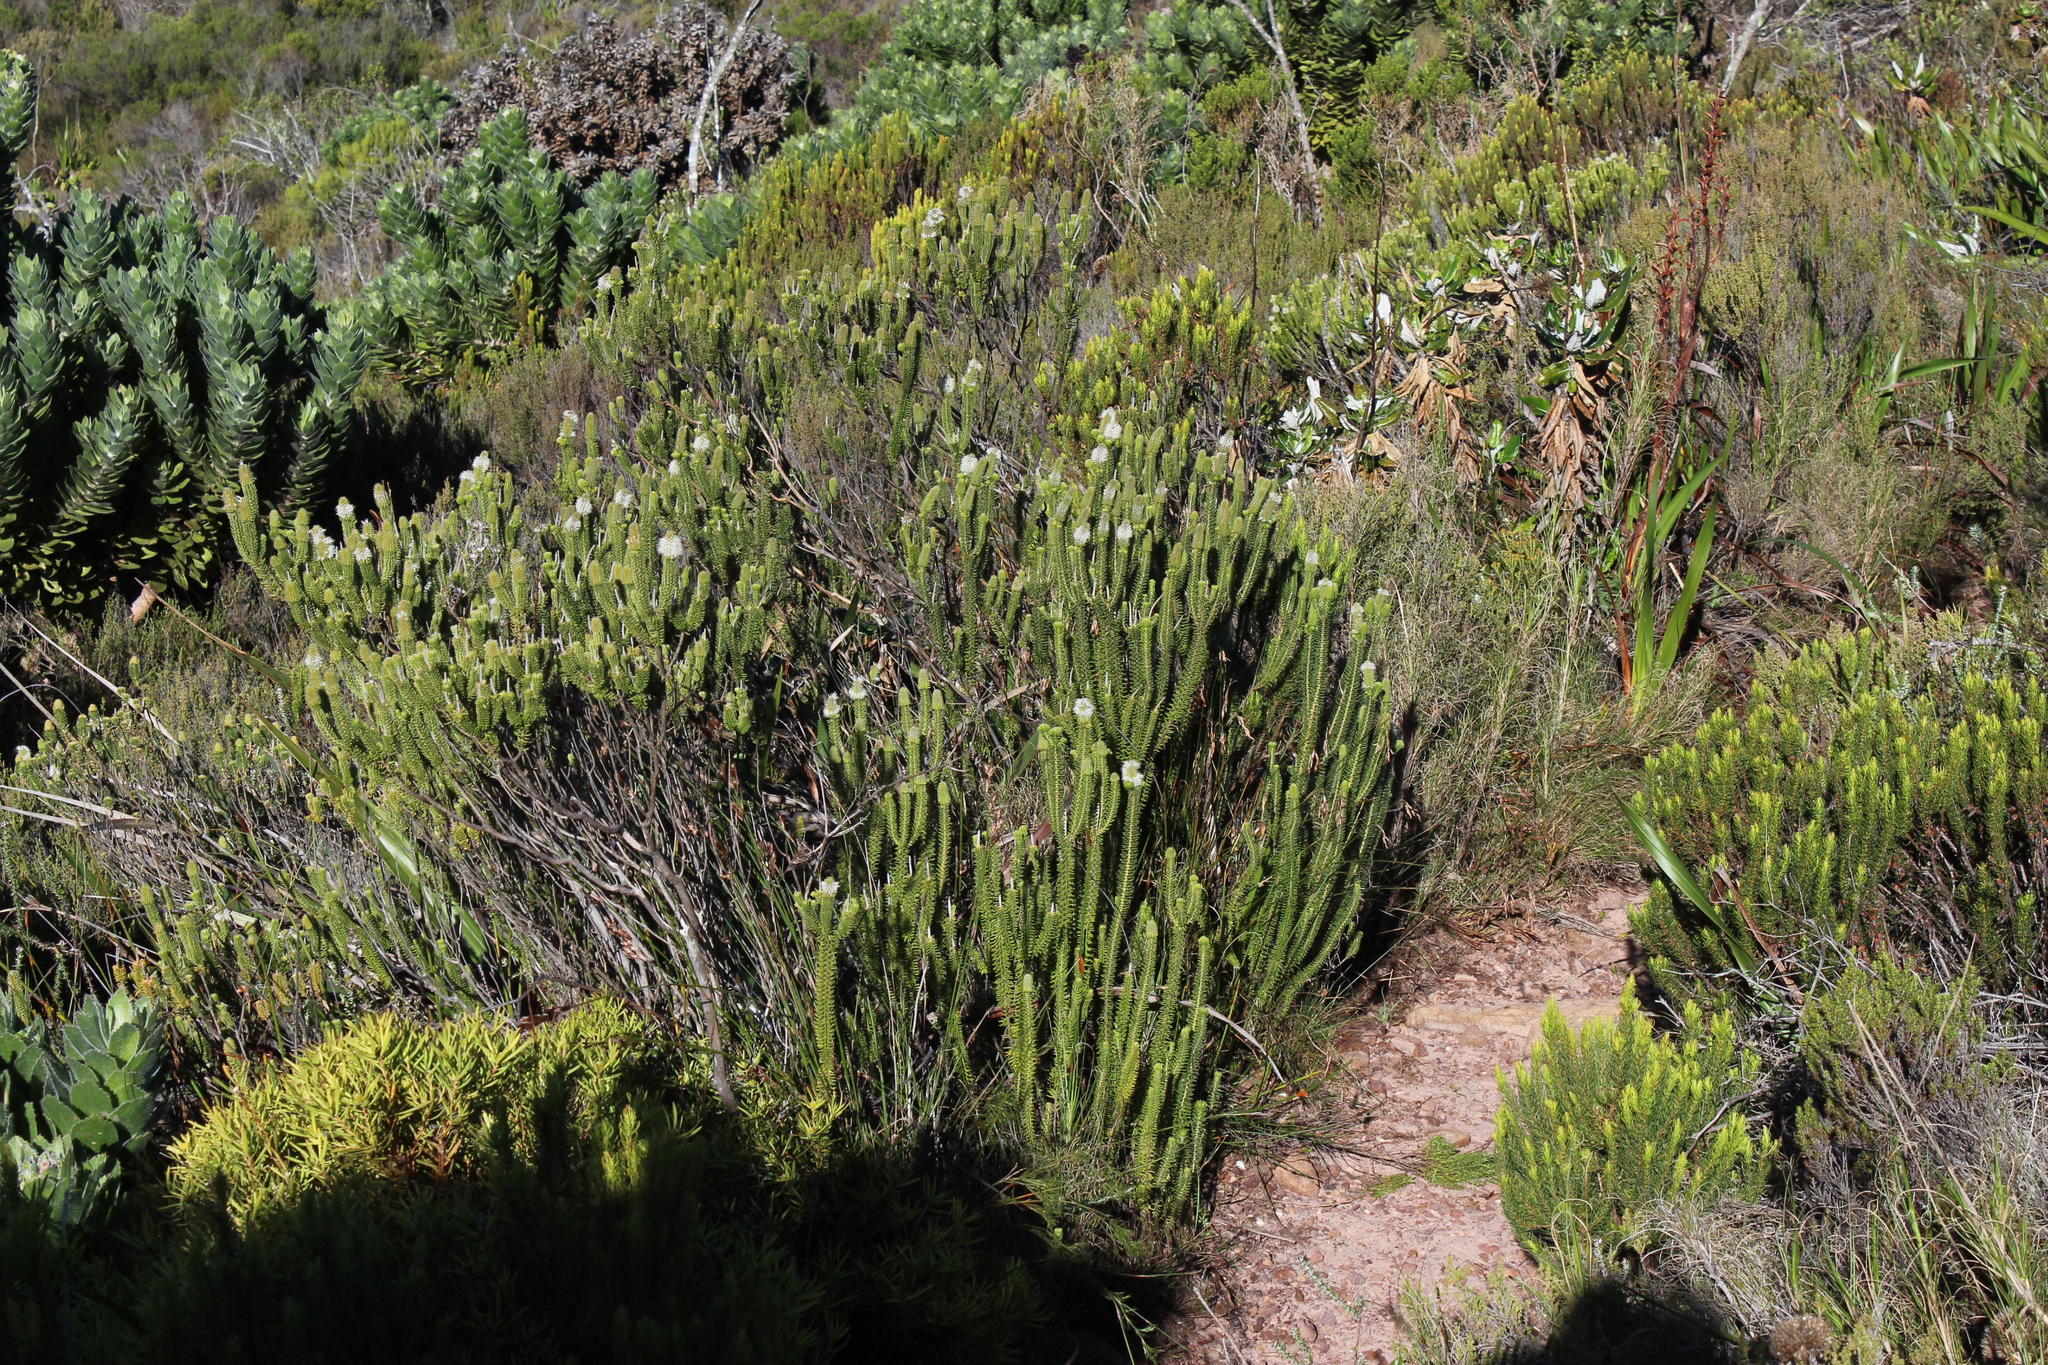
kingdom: Plantae
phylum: Tracheophyta
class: Magnoliopsida
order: Lamiales
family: Stilbaceae
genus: Stilbe
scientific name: Stilbe vestita
